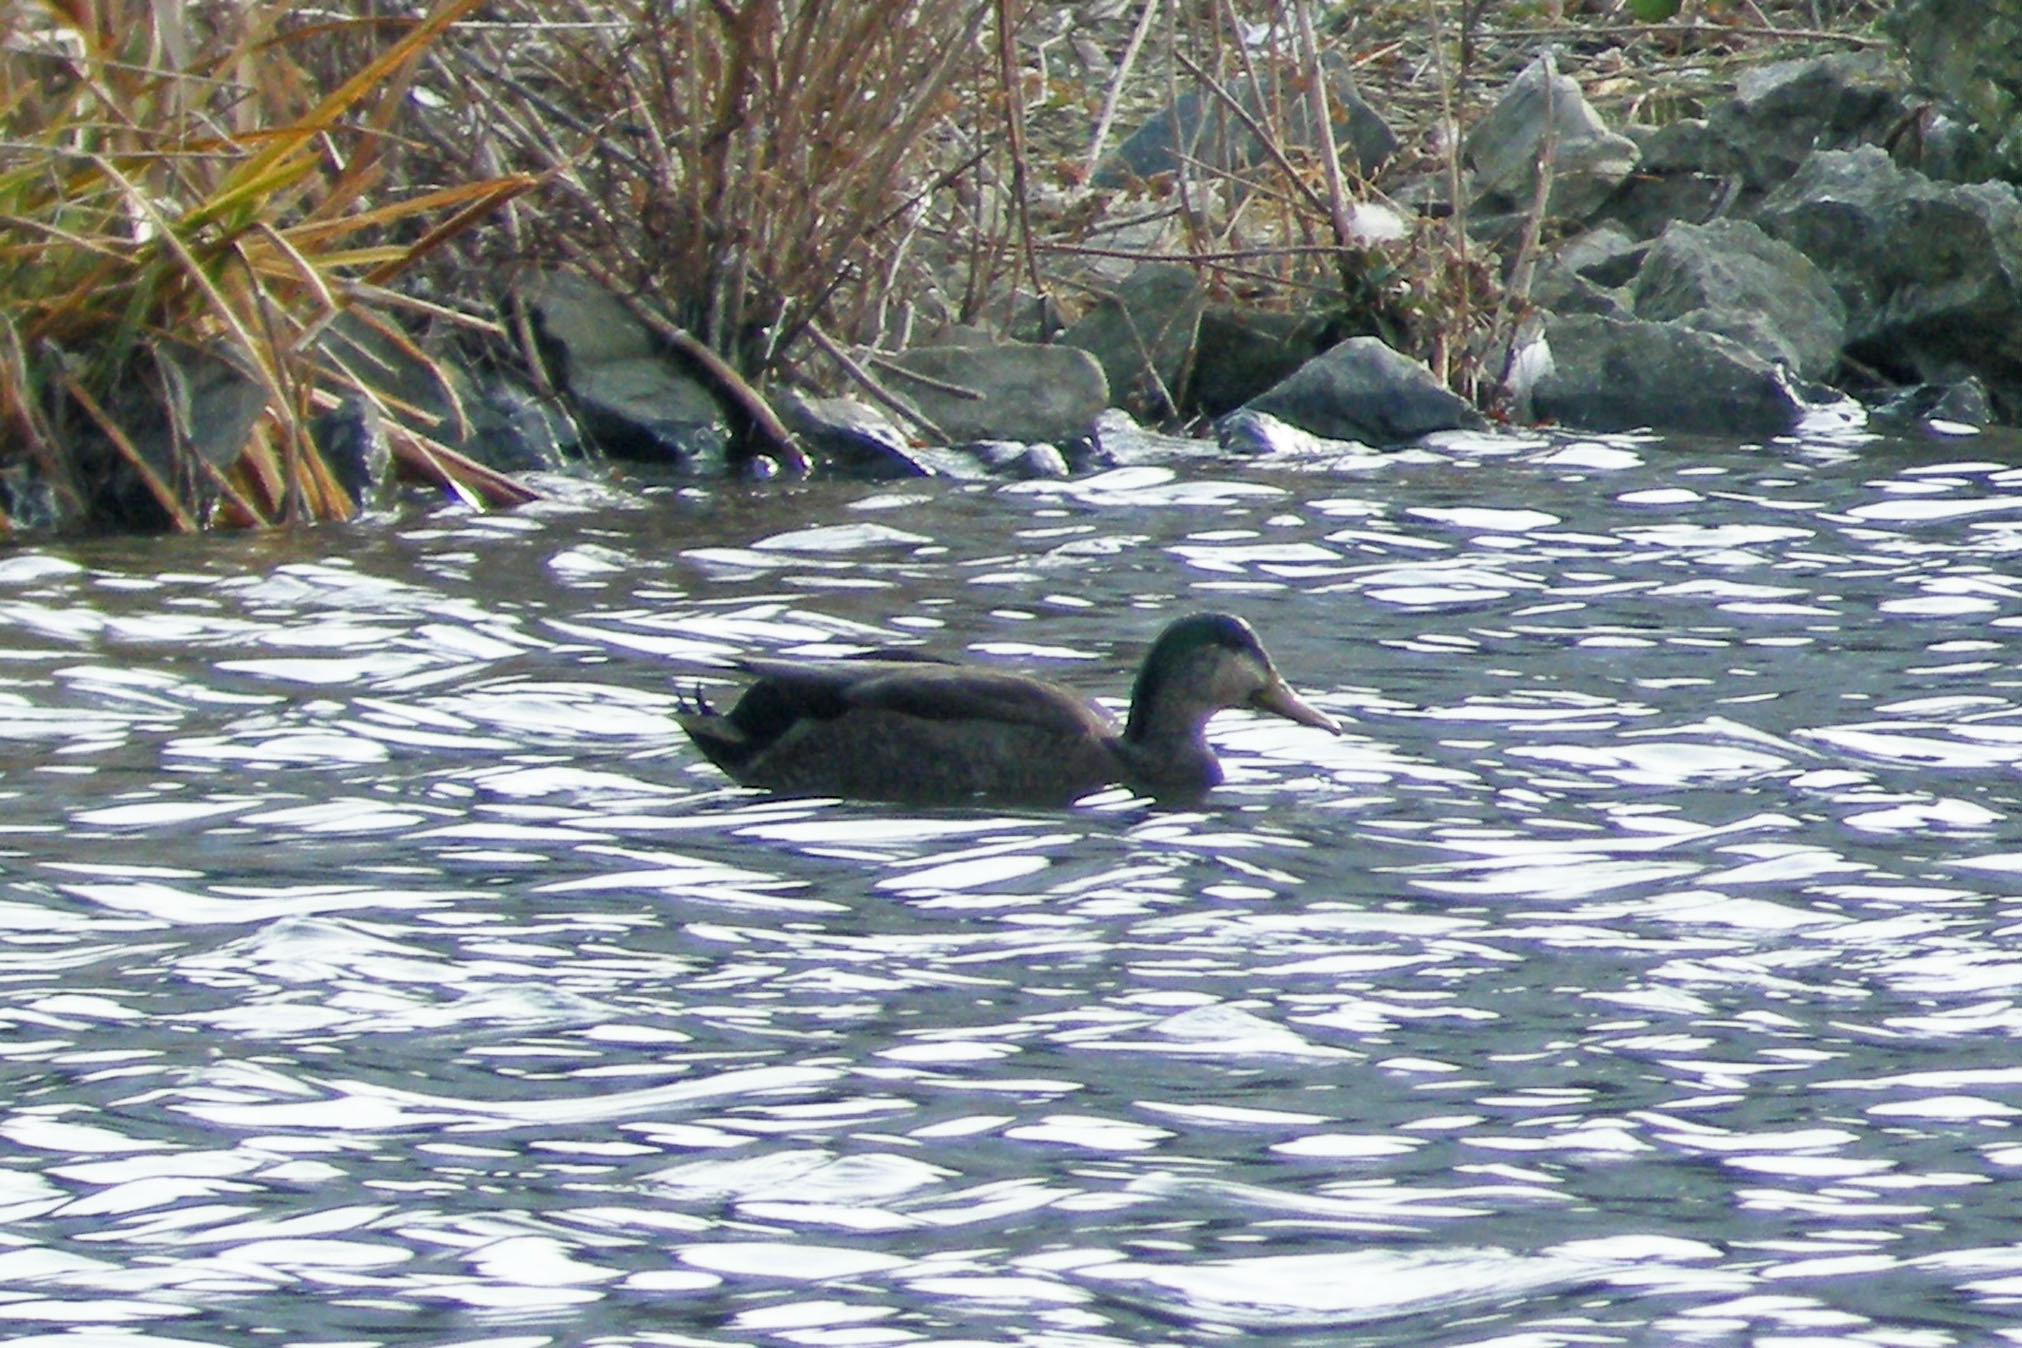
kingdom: Animalia
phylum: Chordata
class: Aves
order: Anseriformes
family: Anatidae
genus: Anas
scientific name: Anas
